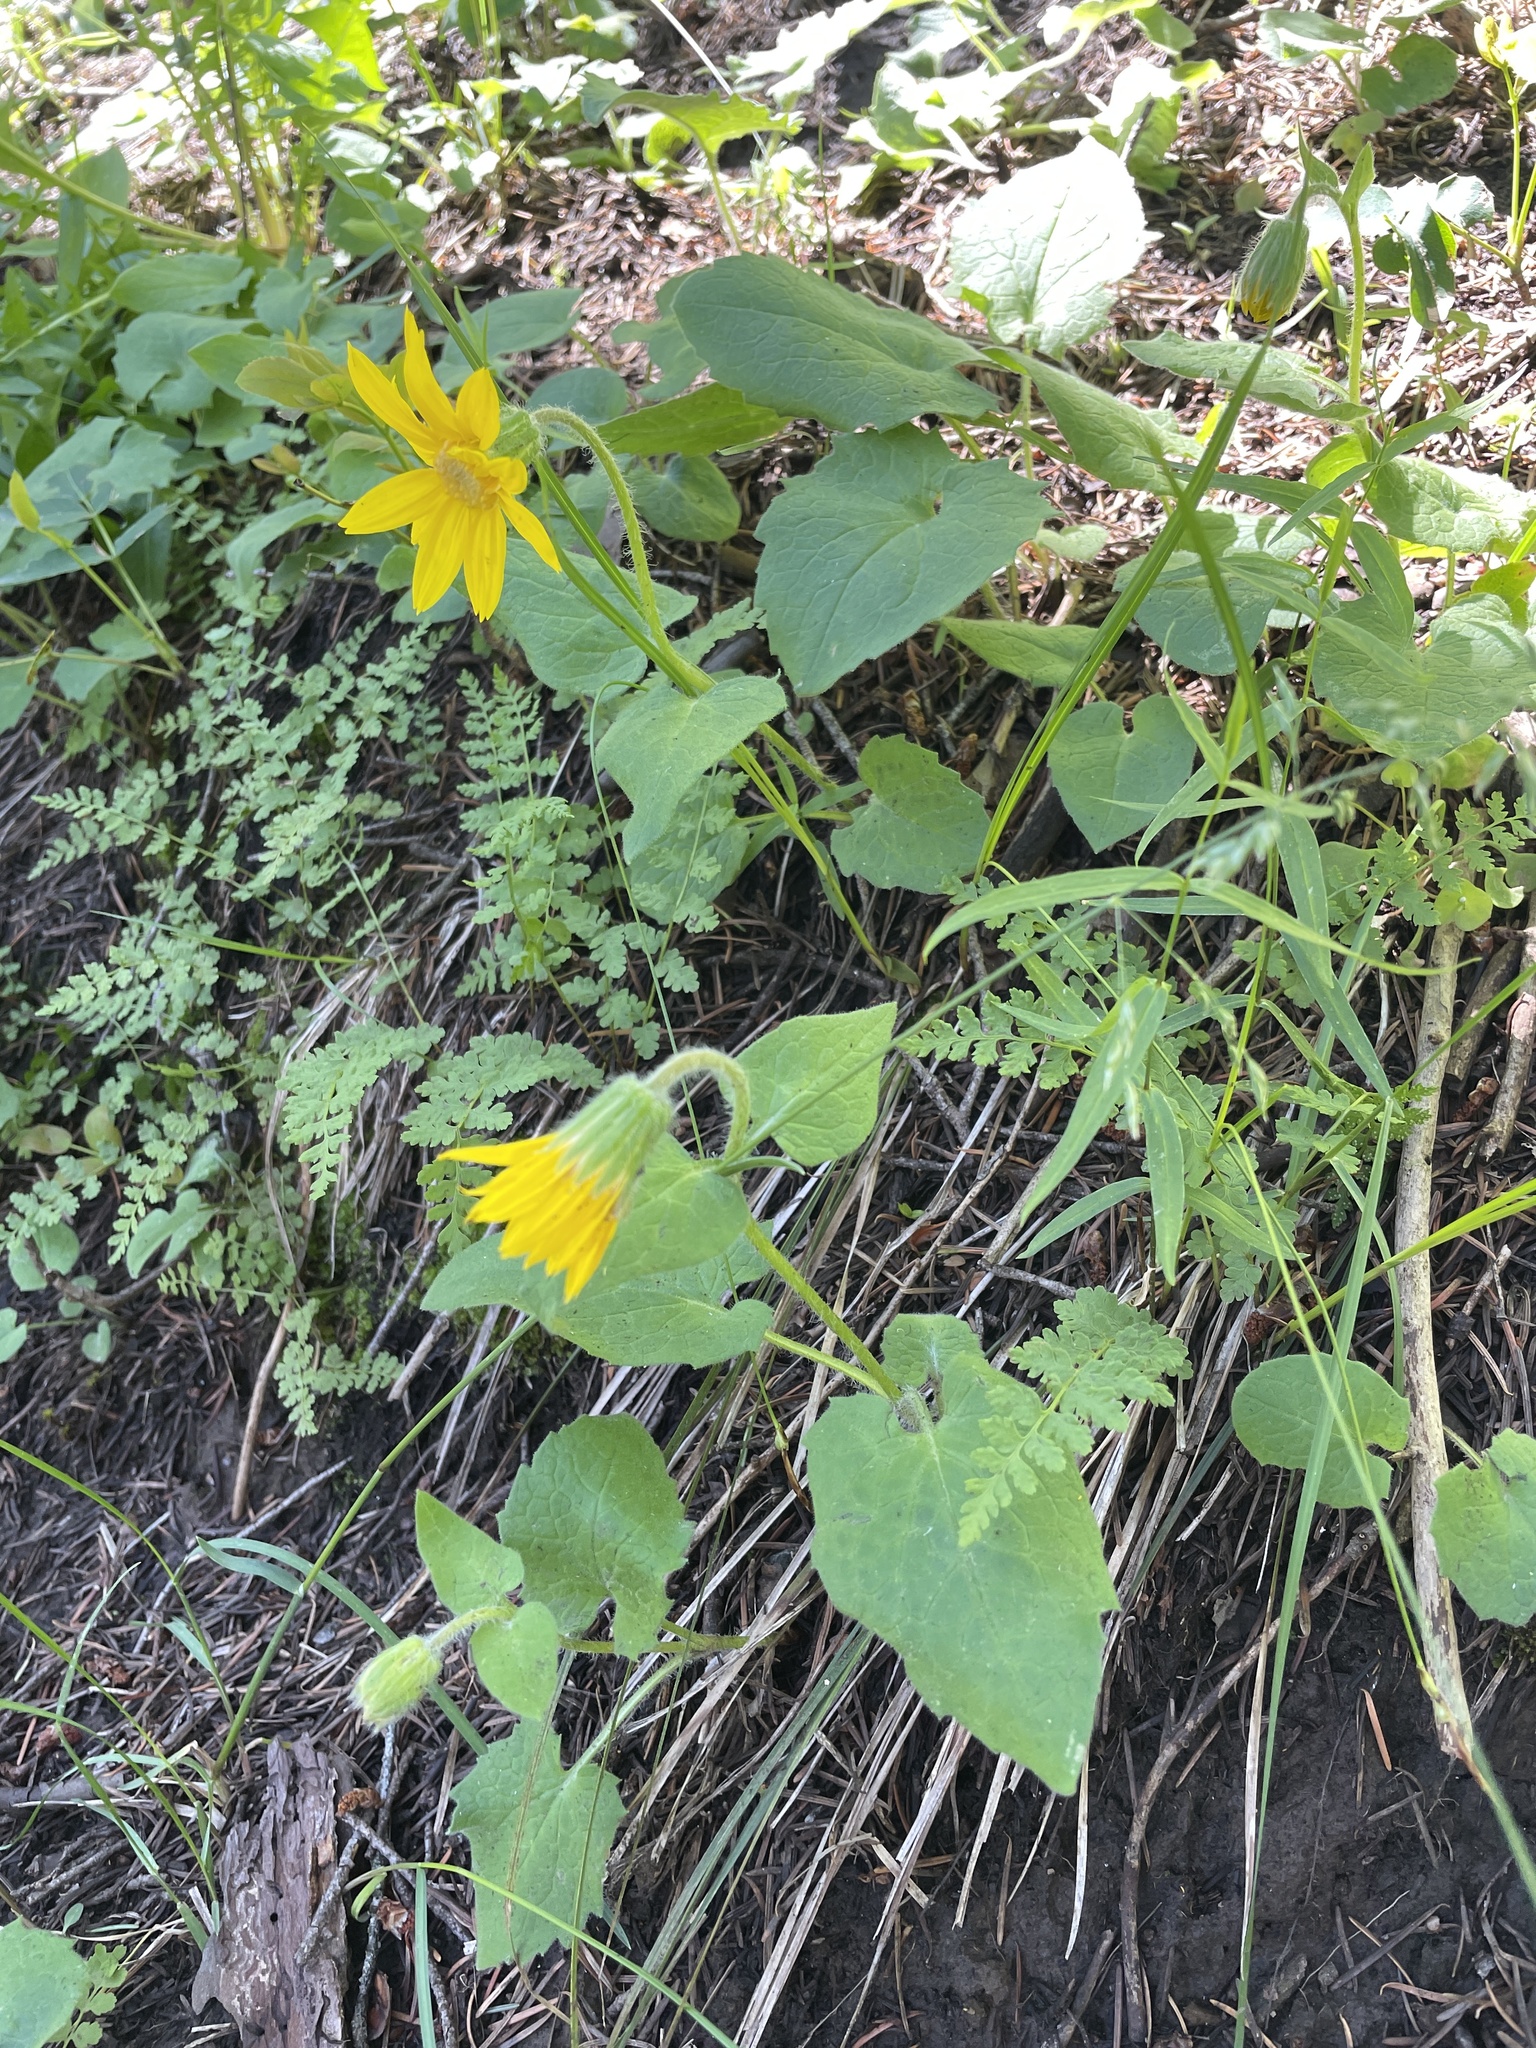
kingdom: Plantae
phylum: Tracheophyta
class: Magnoliopsida
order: Asterales
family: Asteraceae
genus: Arnica
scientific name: Arnica cordifolia
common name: Heart-leaf arnica
